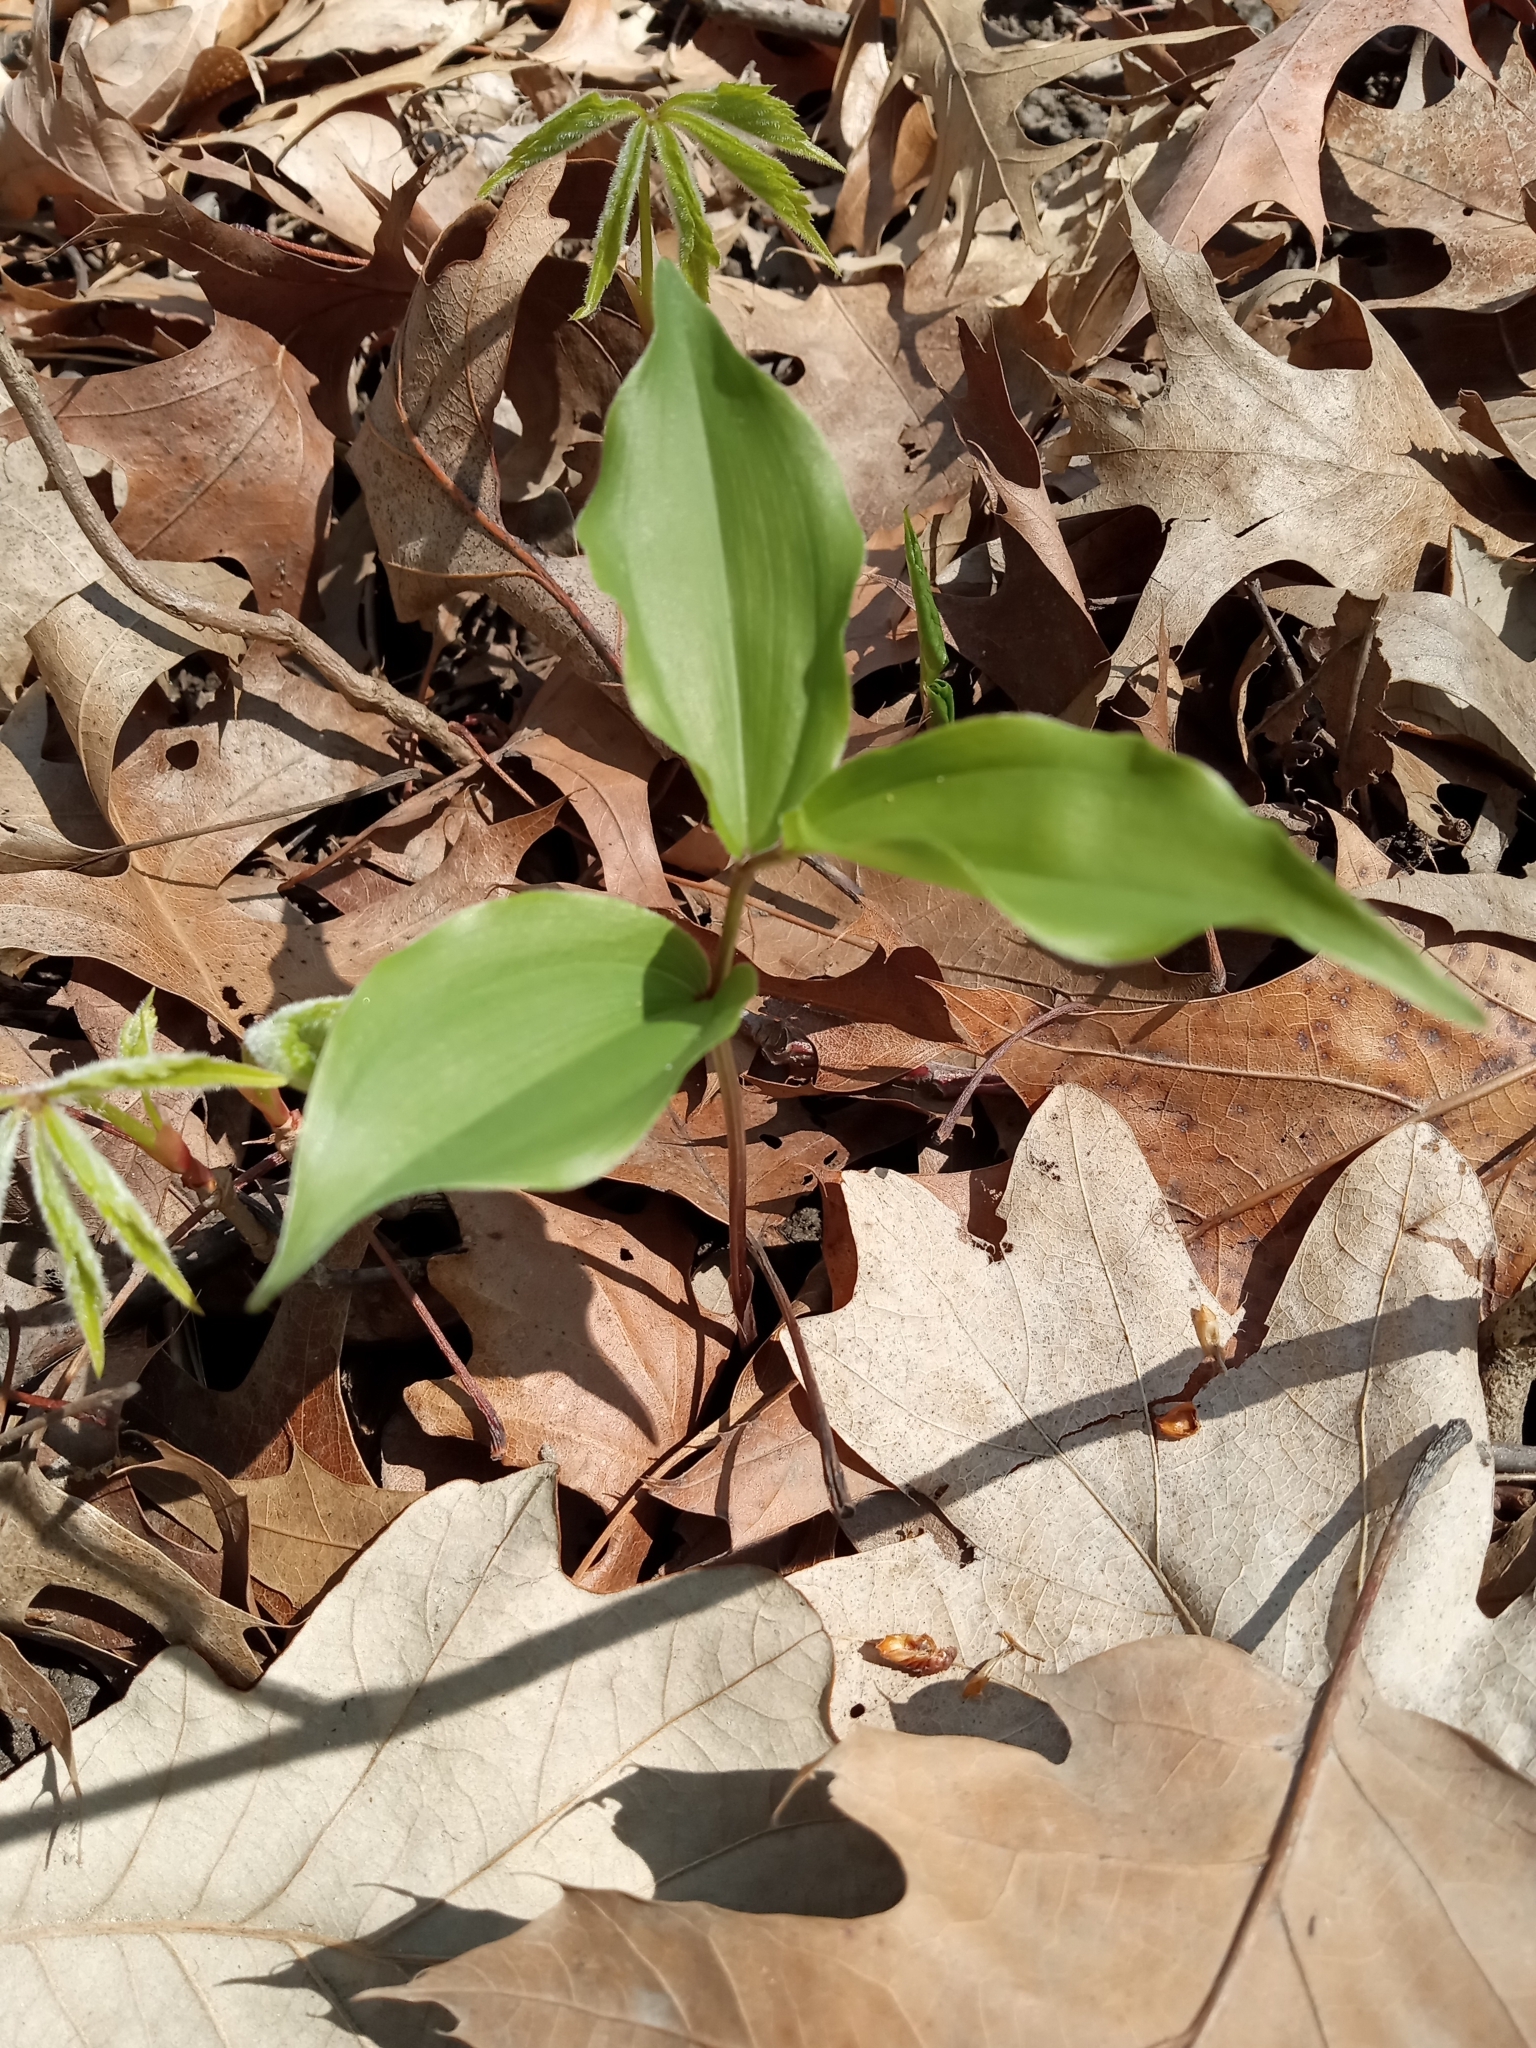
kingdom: Plantae
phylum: Tracheophyta
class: Liliopsida
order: Asparagales
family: Asparagaceae
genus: Maianthemum
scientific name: Maianthemum racemosum
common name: False spikenard
